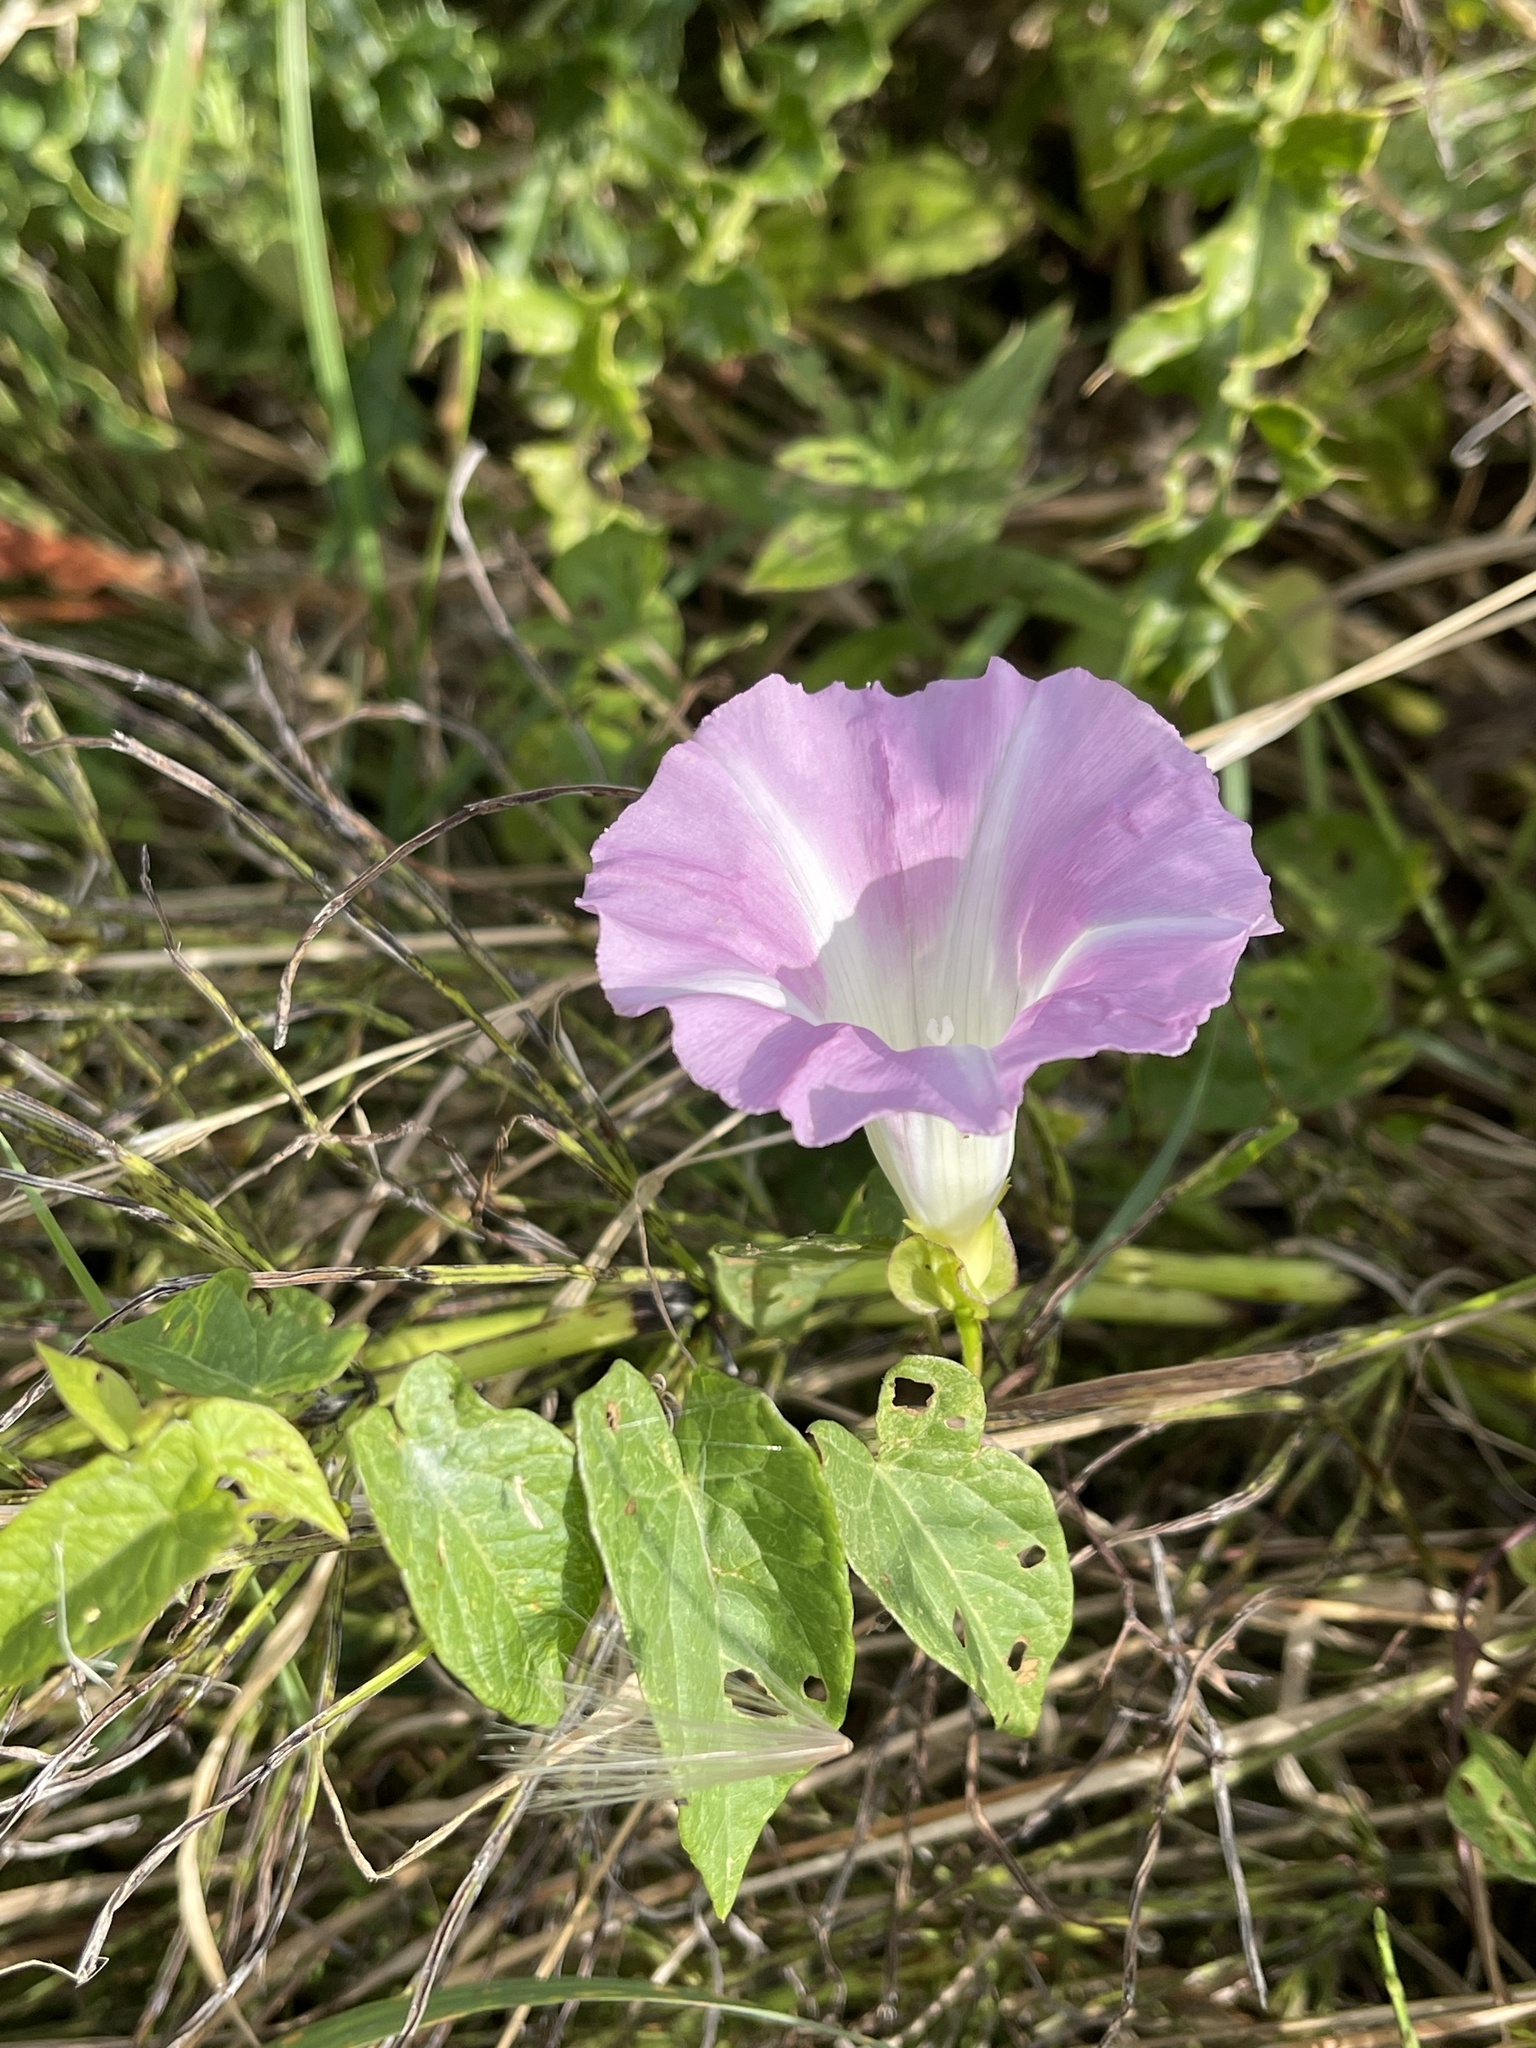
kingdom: Plantae
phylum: Tracheophyta
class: Magnoliopsida
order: Solanales
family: Convolvulaceae
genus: Calystegia
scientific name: Calystegia sepium
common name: Hedge bindweed
